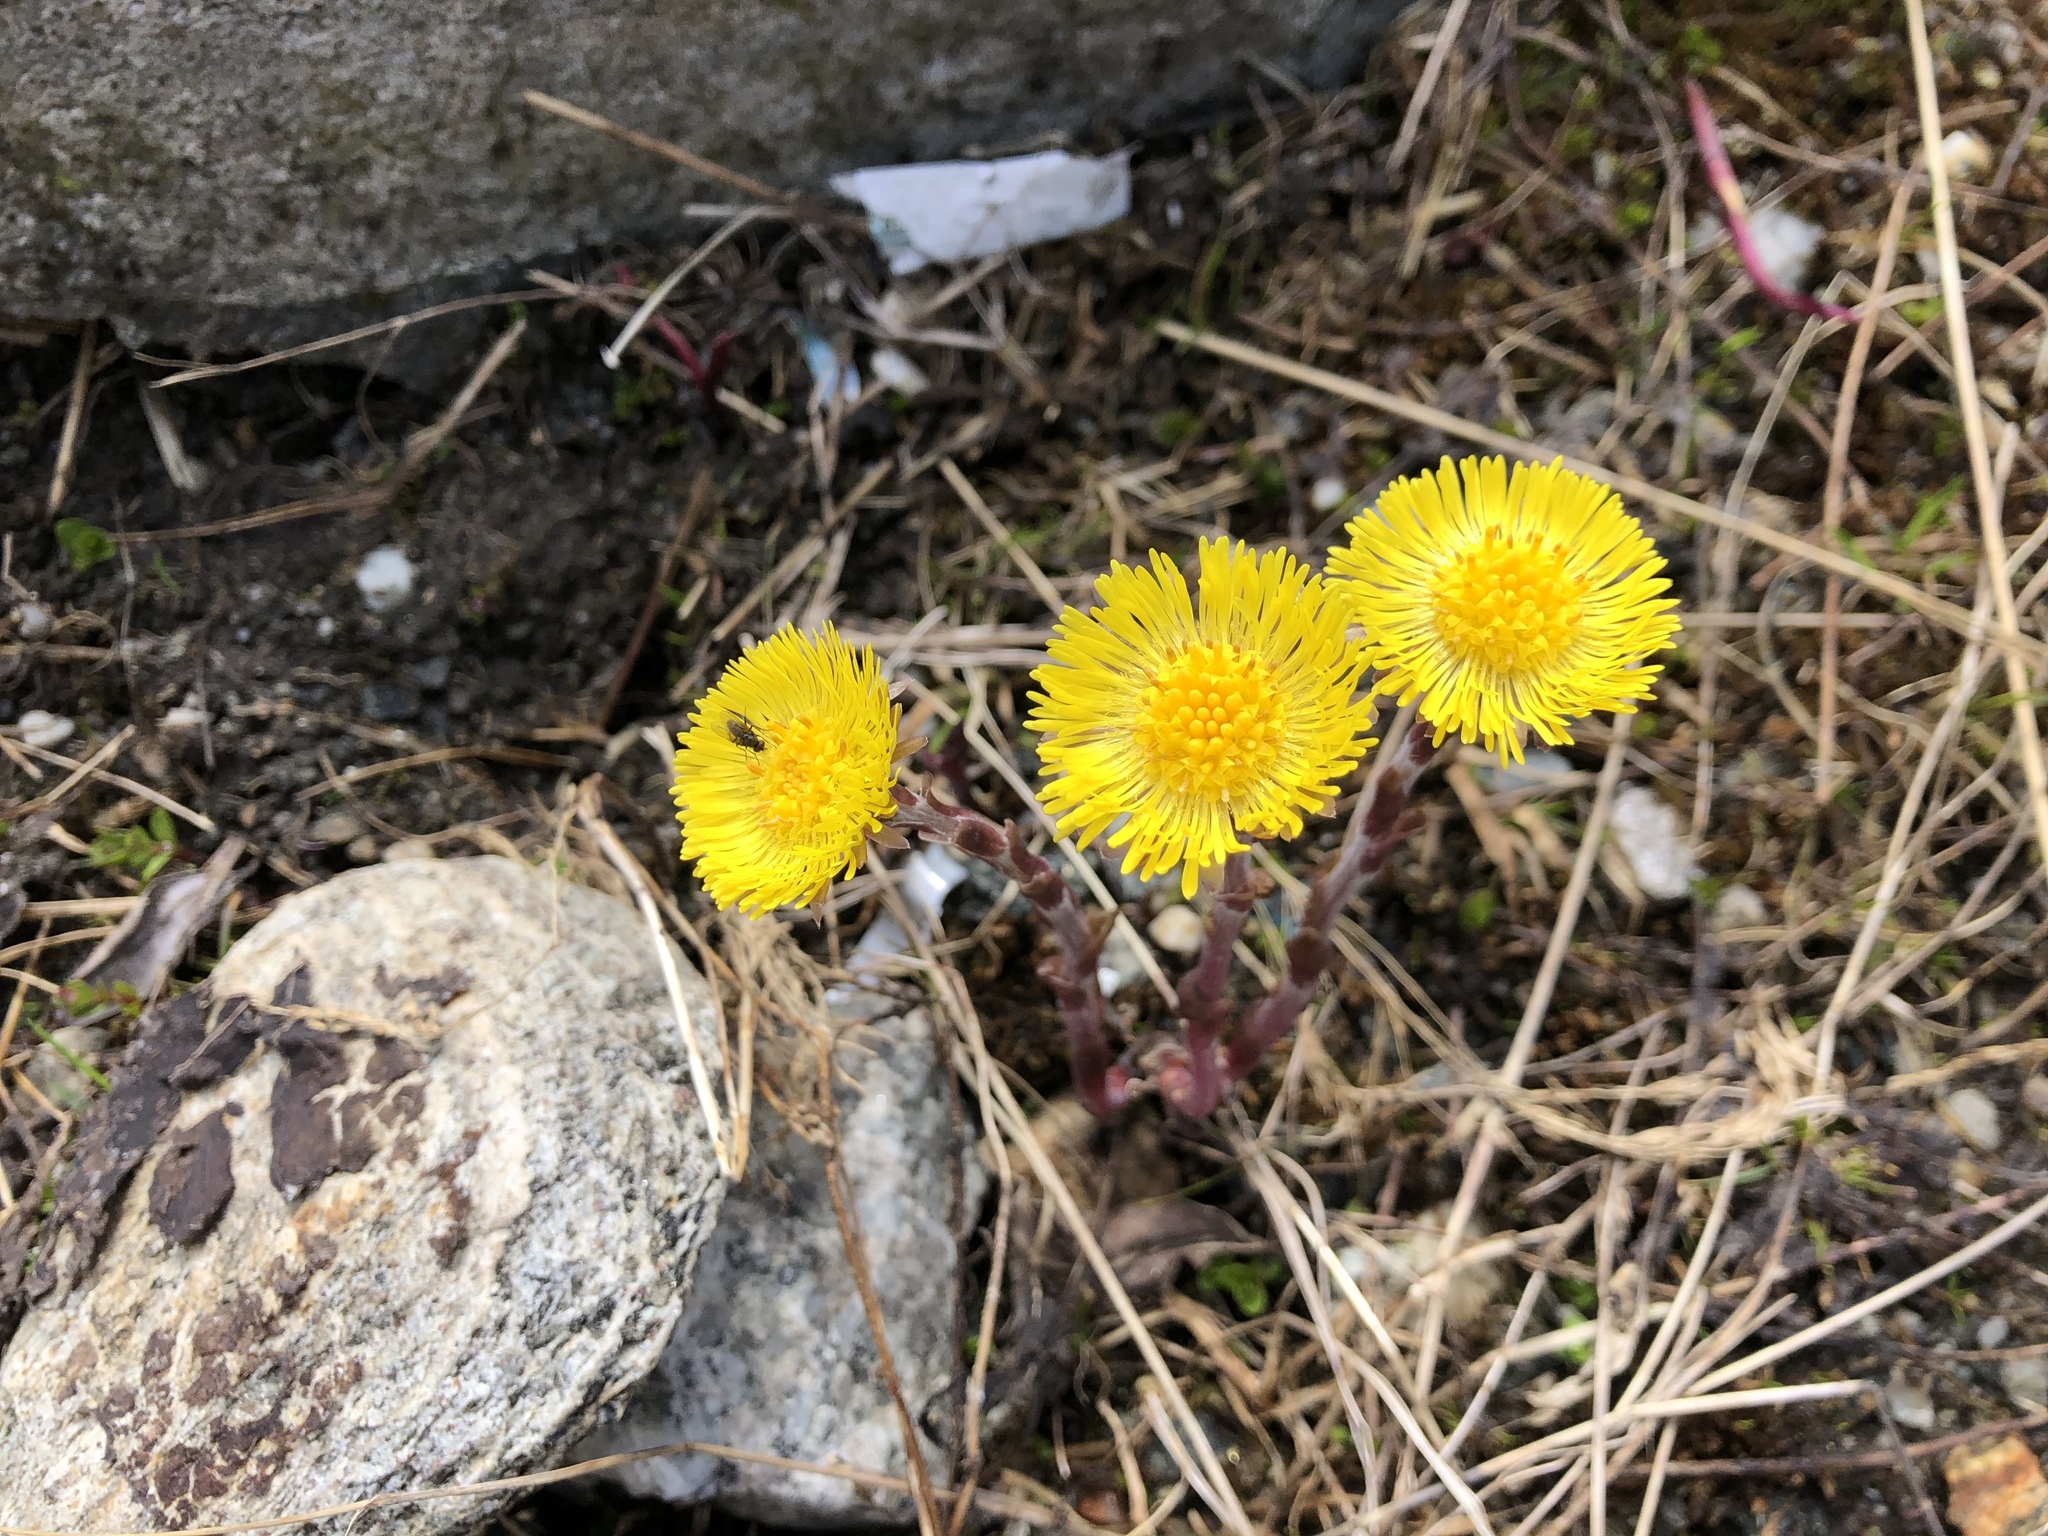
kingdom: Plantae
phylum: Tracheophyta
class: Magnoliopsida
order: Asterales
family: Asteraceae
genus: Tussilago
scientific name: Tussilago farfara
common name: Coltsfoot
